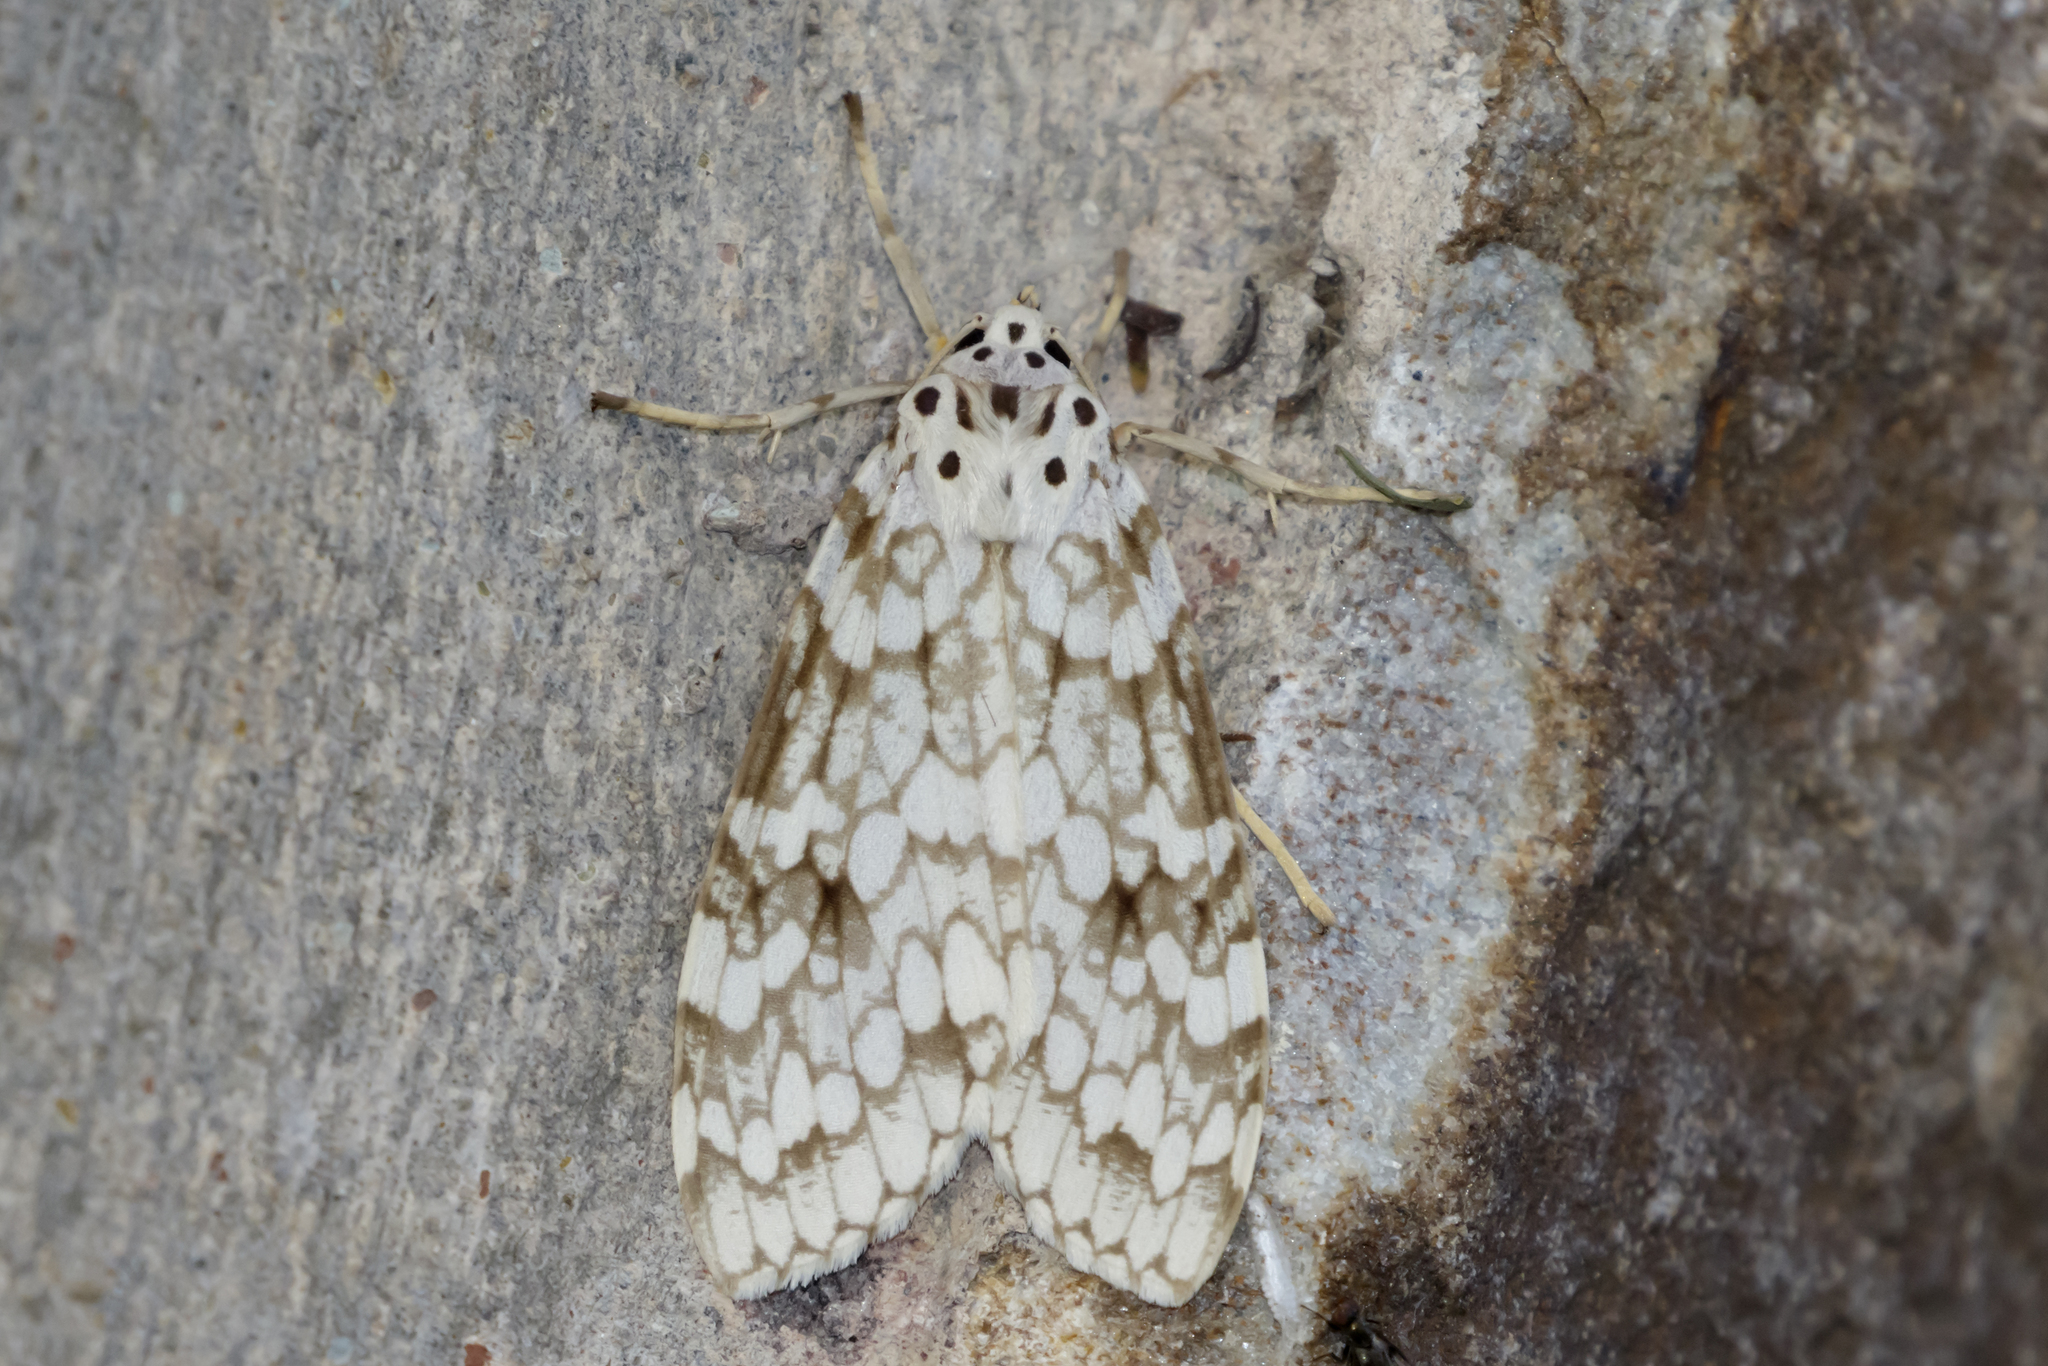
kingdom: Animalia
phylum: Arthropoda
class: Insecta
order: Lepidoptera
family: Erebidae
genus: Carales
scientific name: Carales astur
